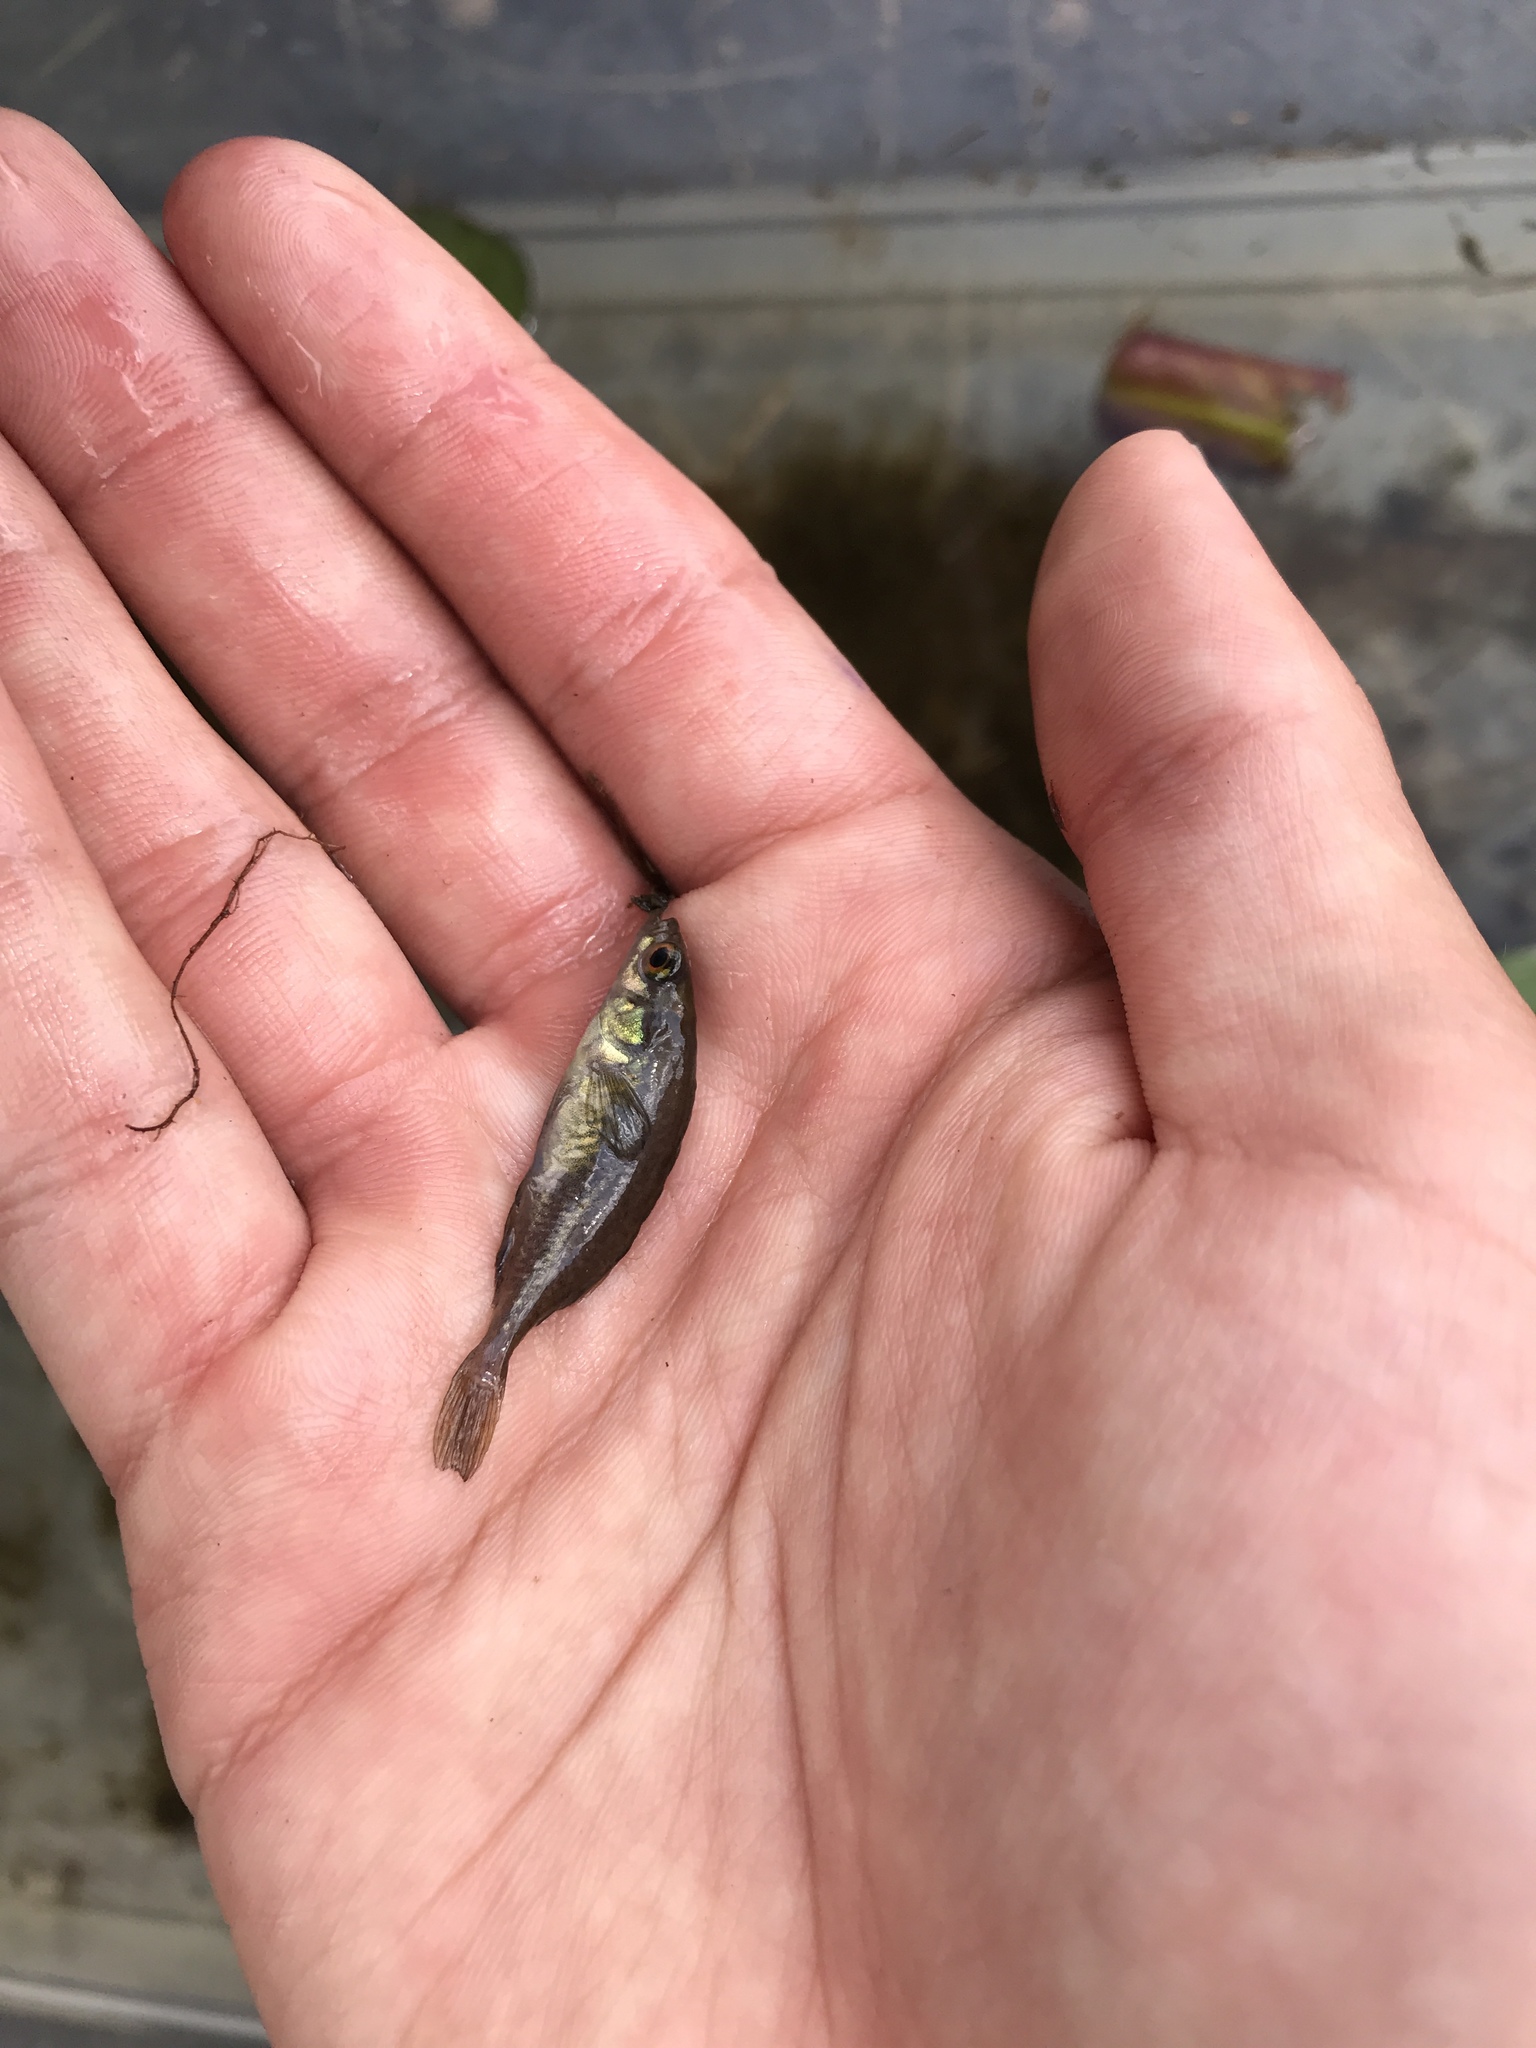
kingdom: Animalia
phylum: Chordata
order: Gasterosteiformes
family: Gasterosteidae
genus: Culaea
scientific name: Culaea inconstans
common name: Brook stickleback
